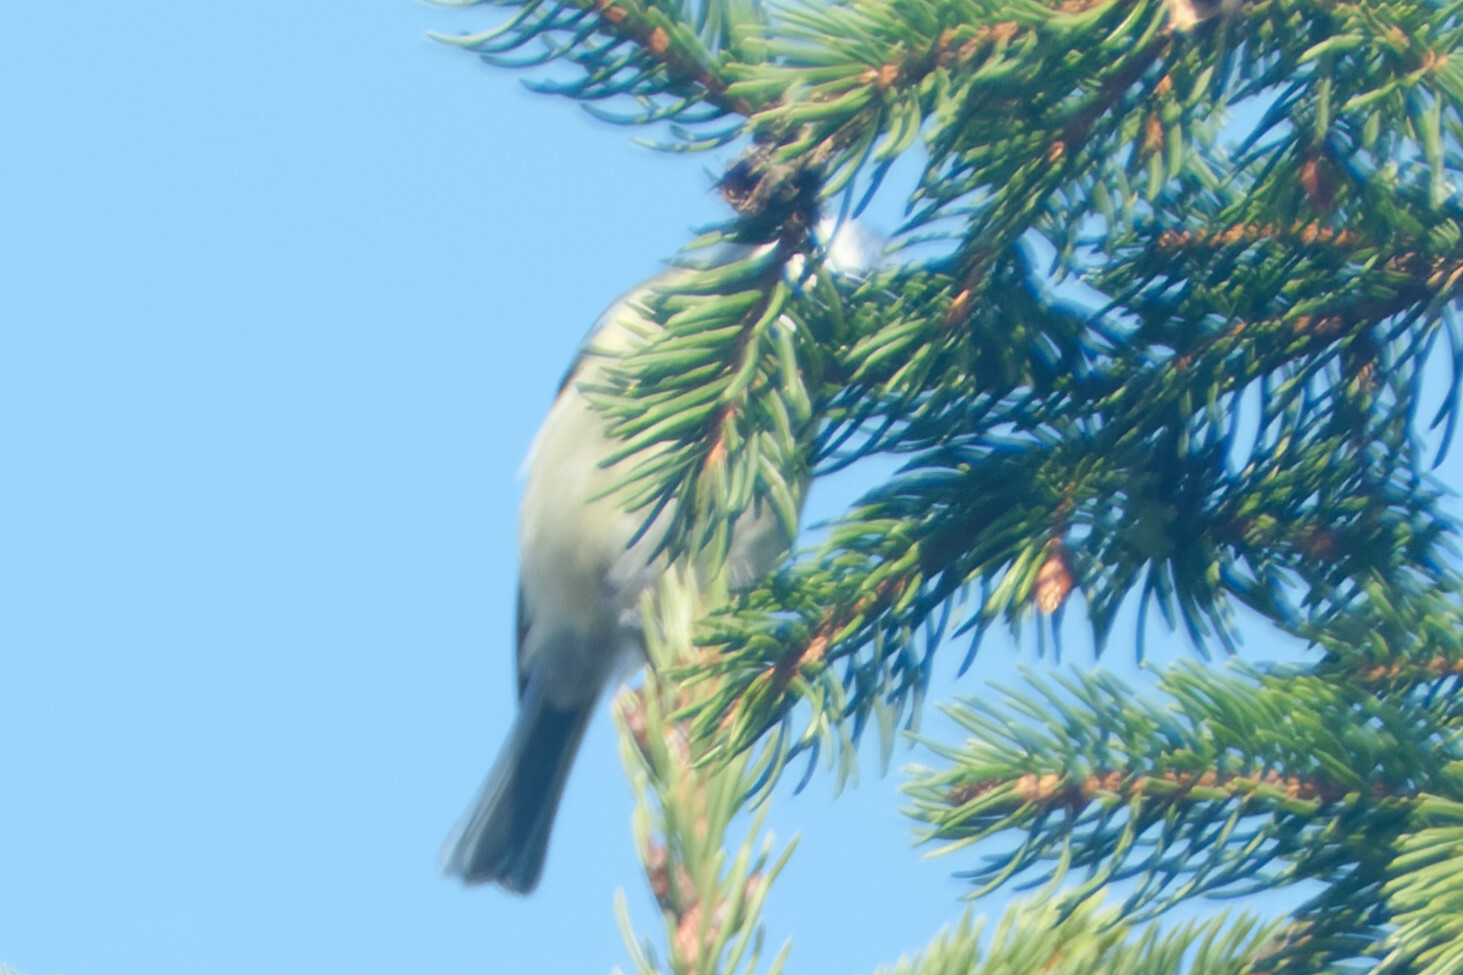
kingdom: Animalia
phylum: Chordata
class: Aves
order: Passeriformes
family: Paridae
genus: Cyanistes
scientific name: Cyanistes caeruleus
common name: Eurasian blue tit
